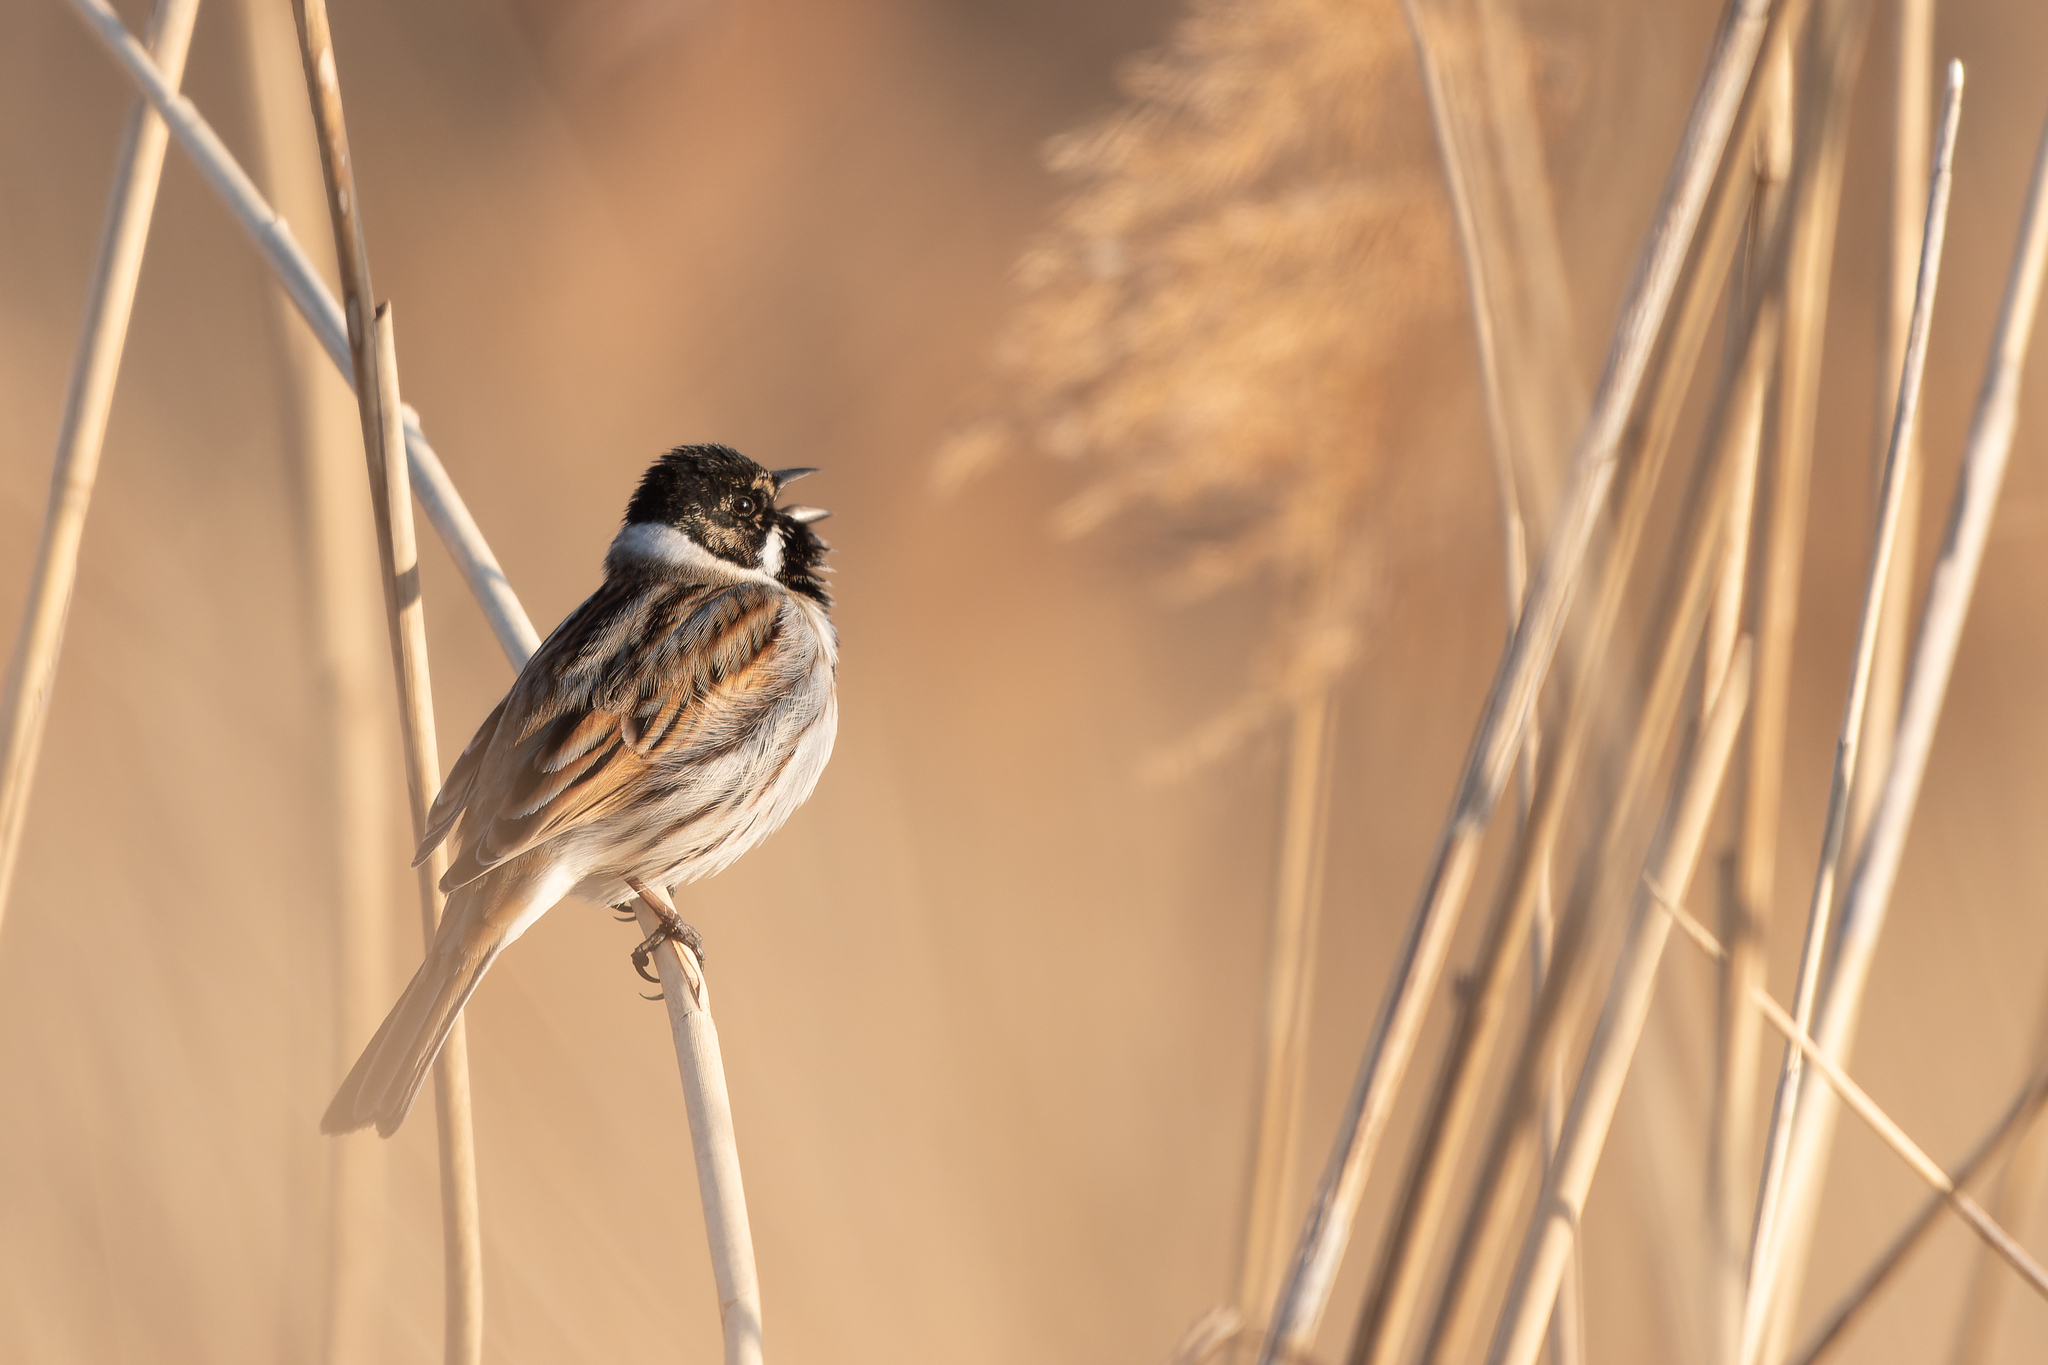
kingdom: Animalia
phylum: Chordata
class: Aves
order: Passeriformes
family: Emberizidae
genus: Emberiza
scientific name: Emberiza schoeniclus
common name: Reed bunting
